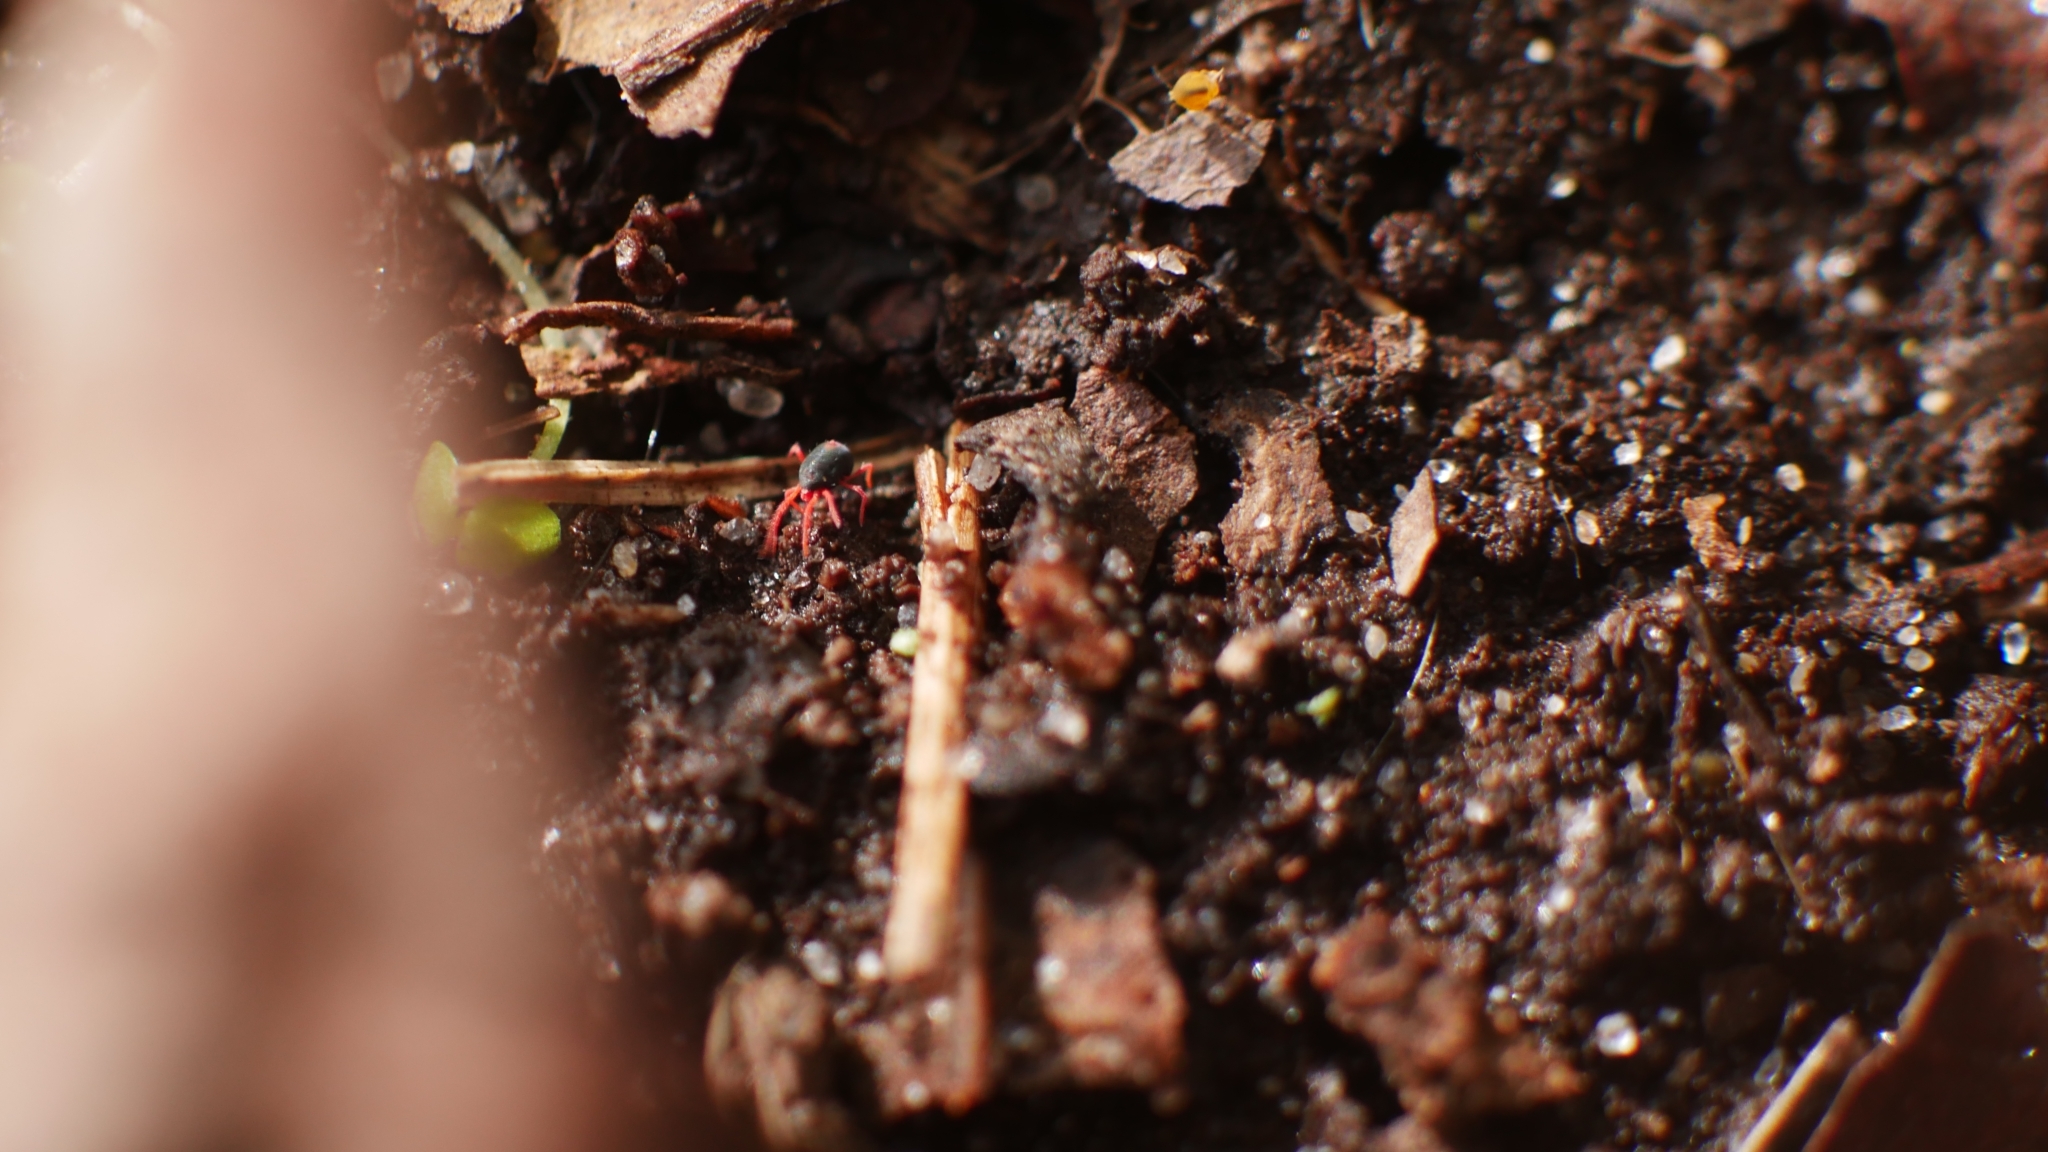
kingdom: Animalia
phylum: Arthropoda
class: Arachnida
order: Trombidiformes
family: Penthaleidae
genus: Penthaleus
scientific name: Penthaleus major
